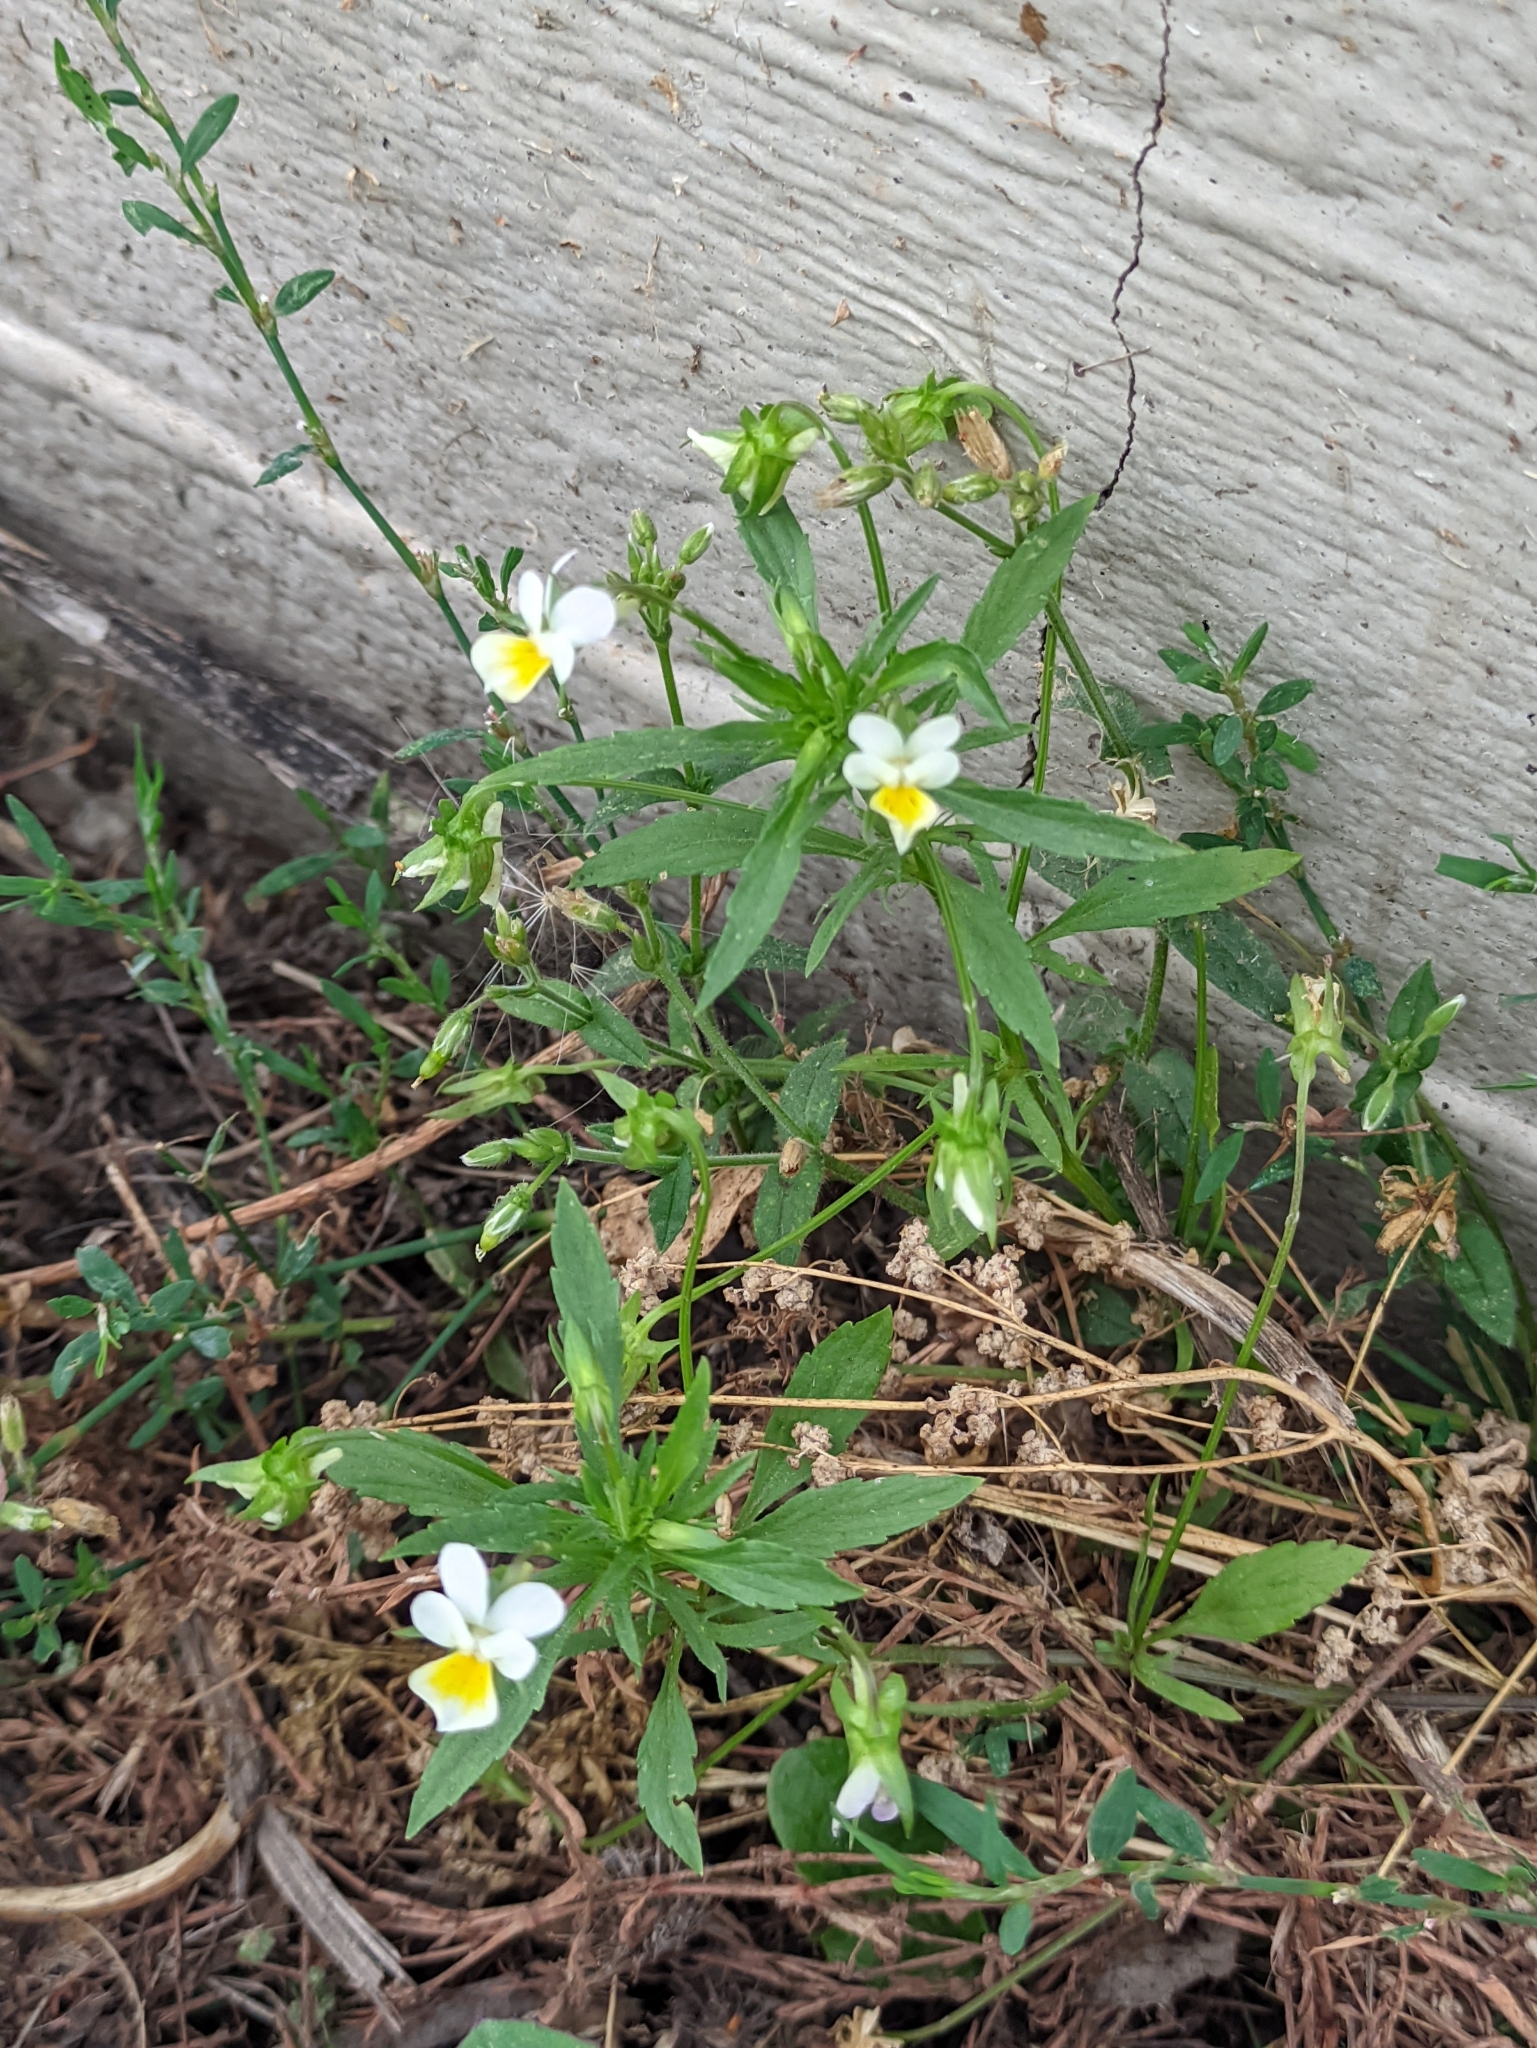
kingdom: Plantae
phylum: Tracheophyta
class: Magnoliopsida
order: Malpighiales
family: Violaceae
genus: Viola
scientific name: Viola arvensis
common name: Field pansy
